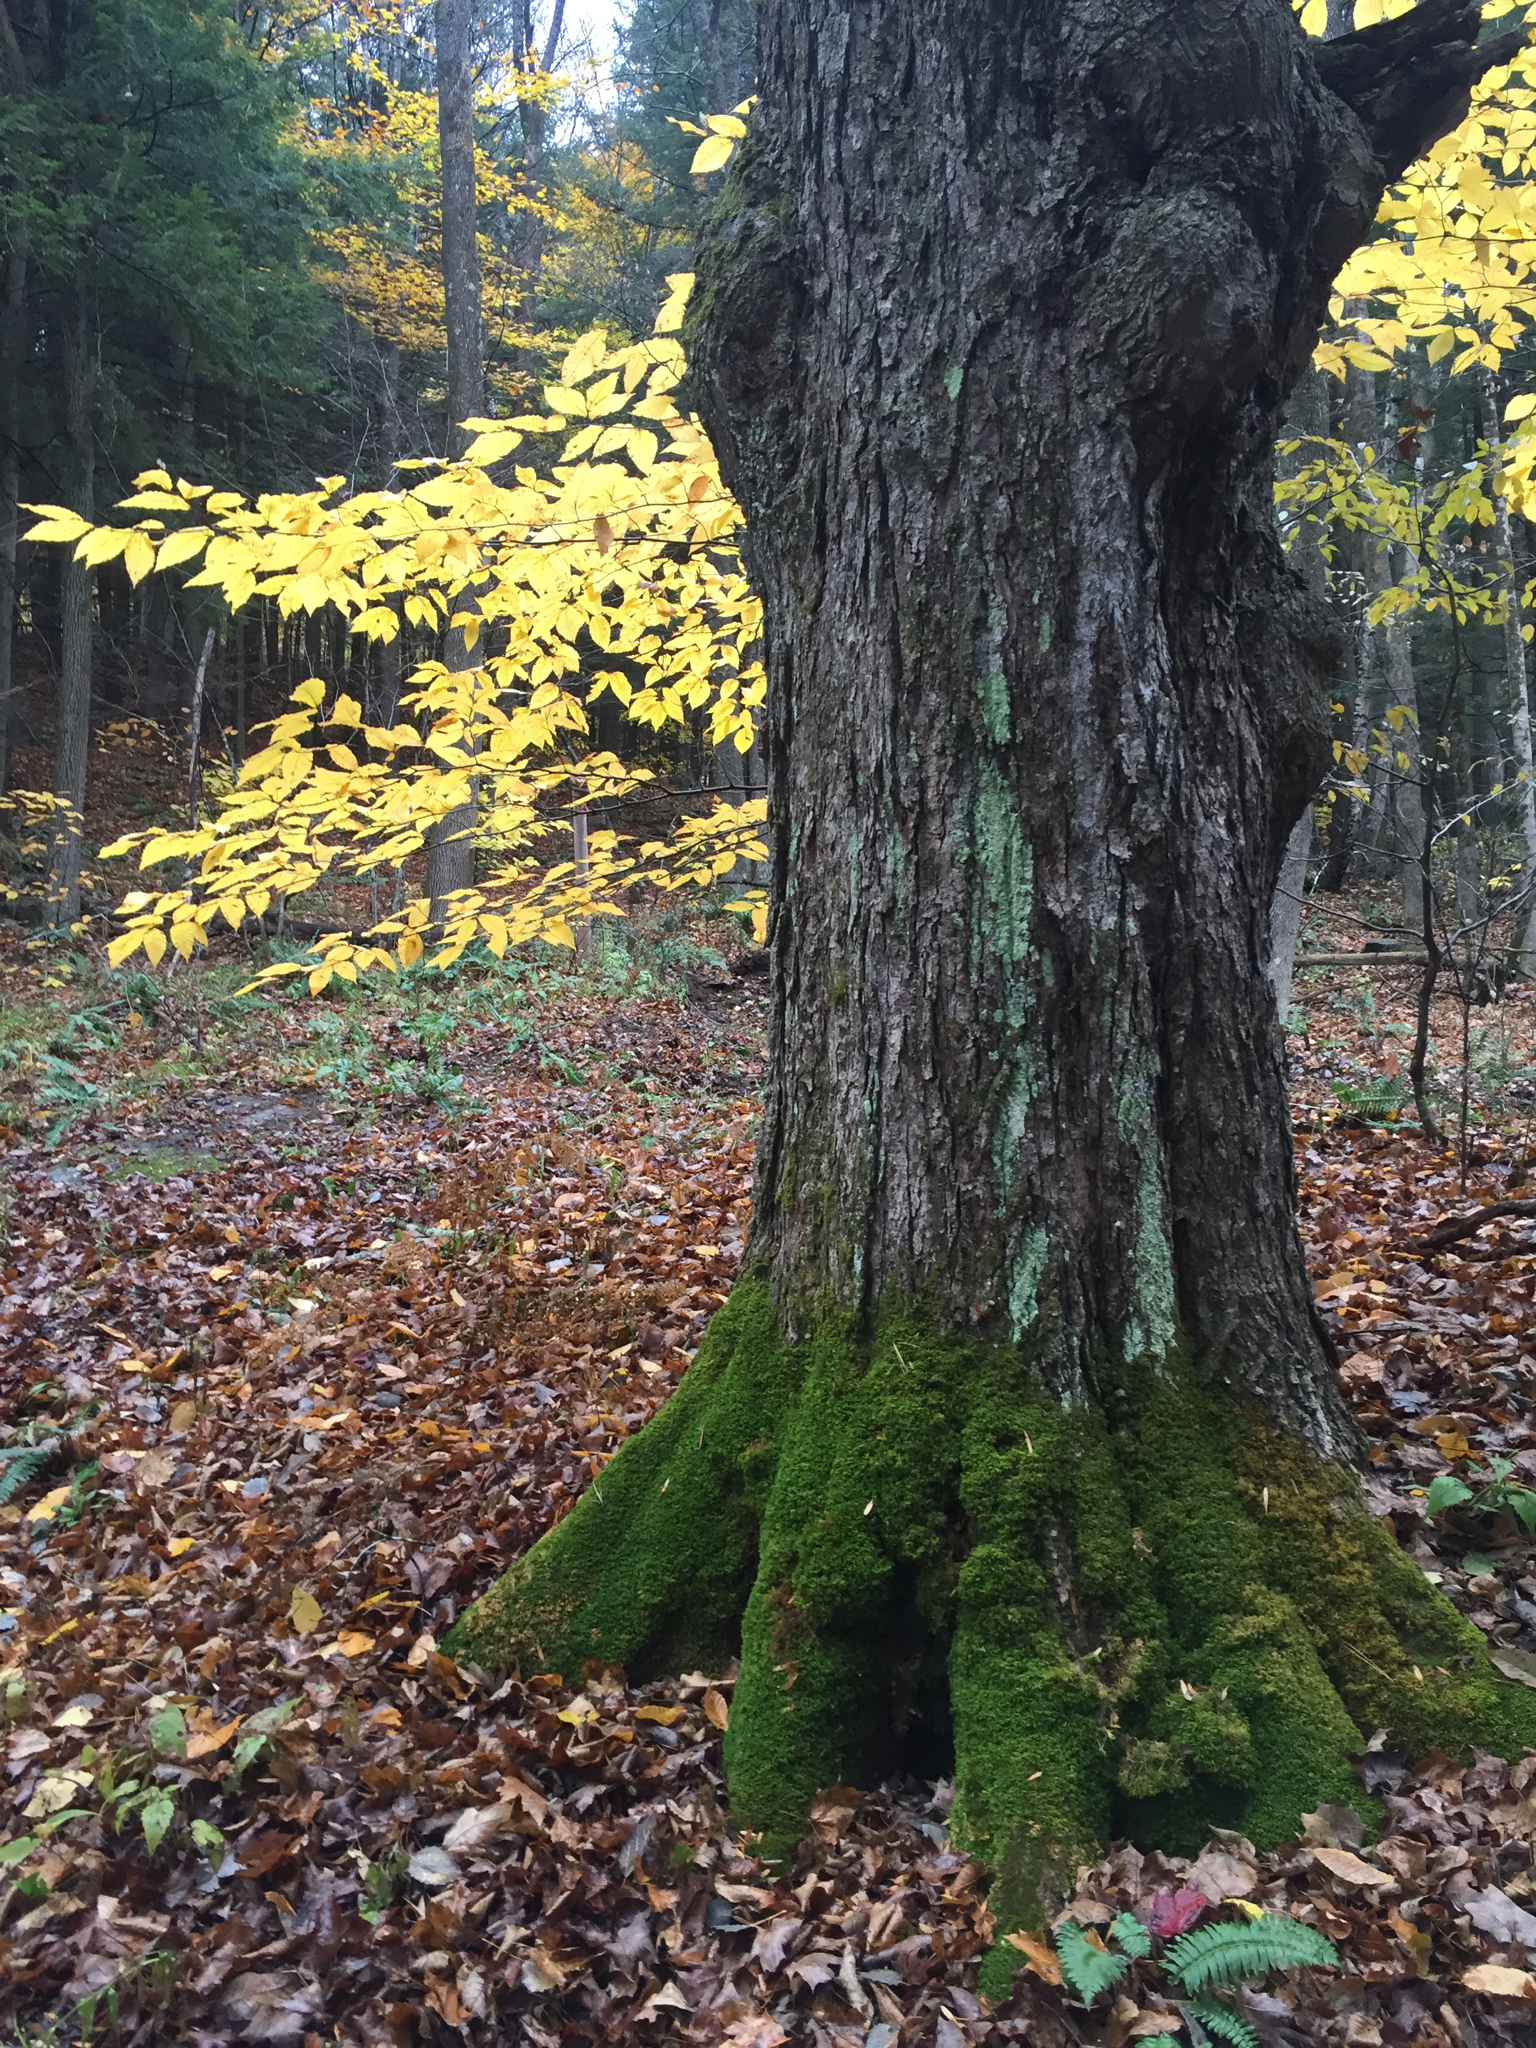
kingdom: Plantae
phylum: Tracheophyta
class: Magnoliopsida
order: Sapindales
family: Sapindaceae
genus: Acer
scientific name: Acer saccharum
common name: Sugar maple
